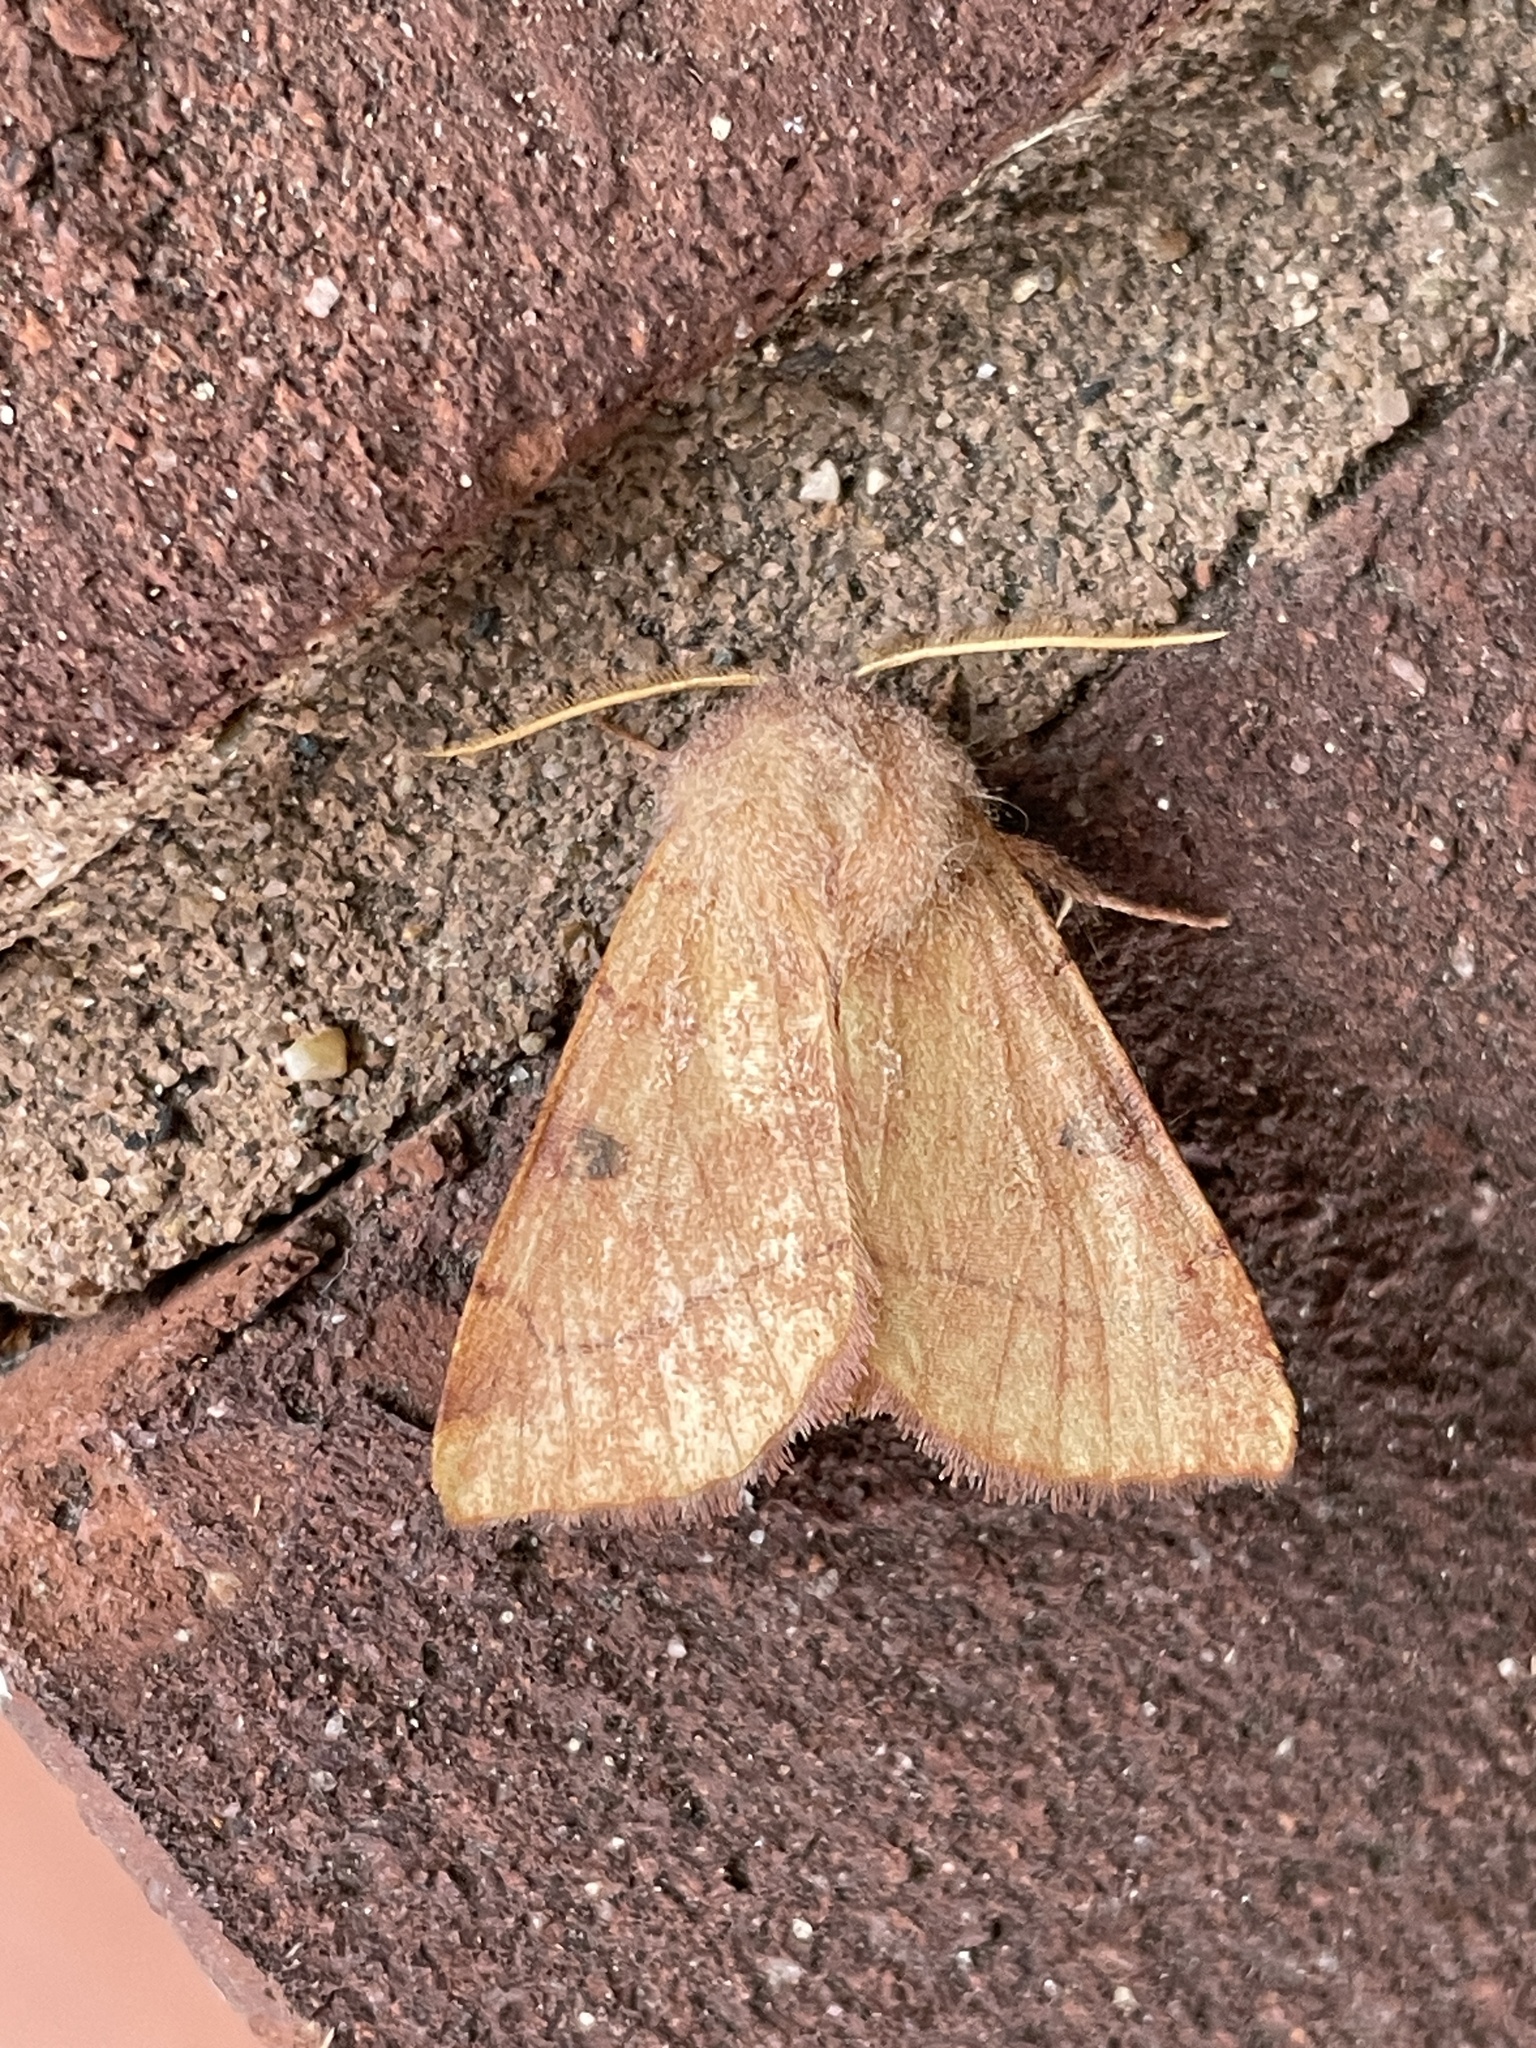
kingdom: Animalia
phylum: Arthropoda
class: Insecta
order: Lepidoptera
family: Noctuidae
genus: Choephora
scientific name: Choephora fungorum
